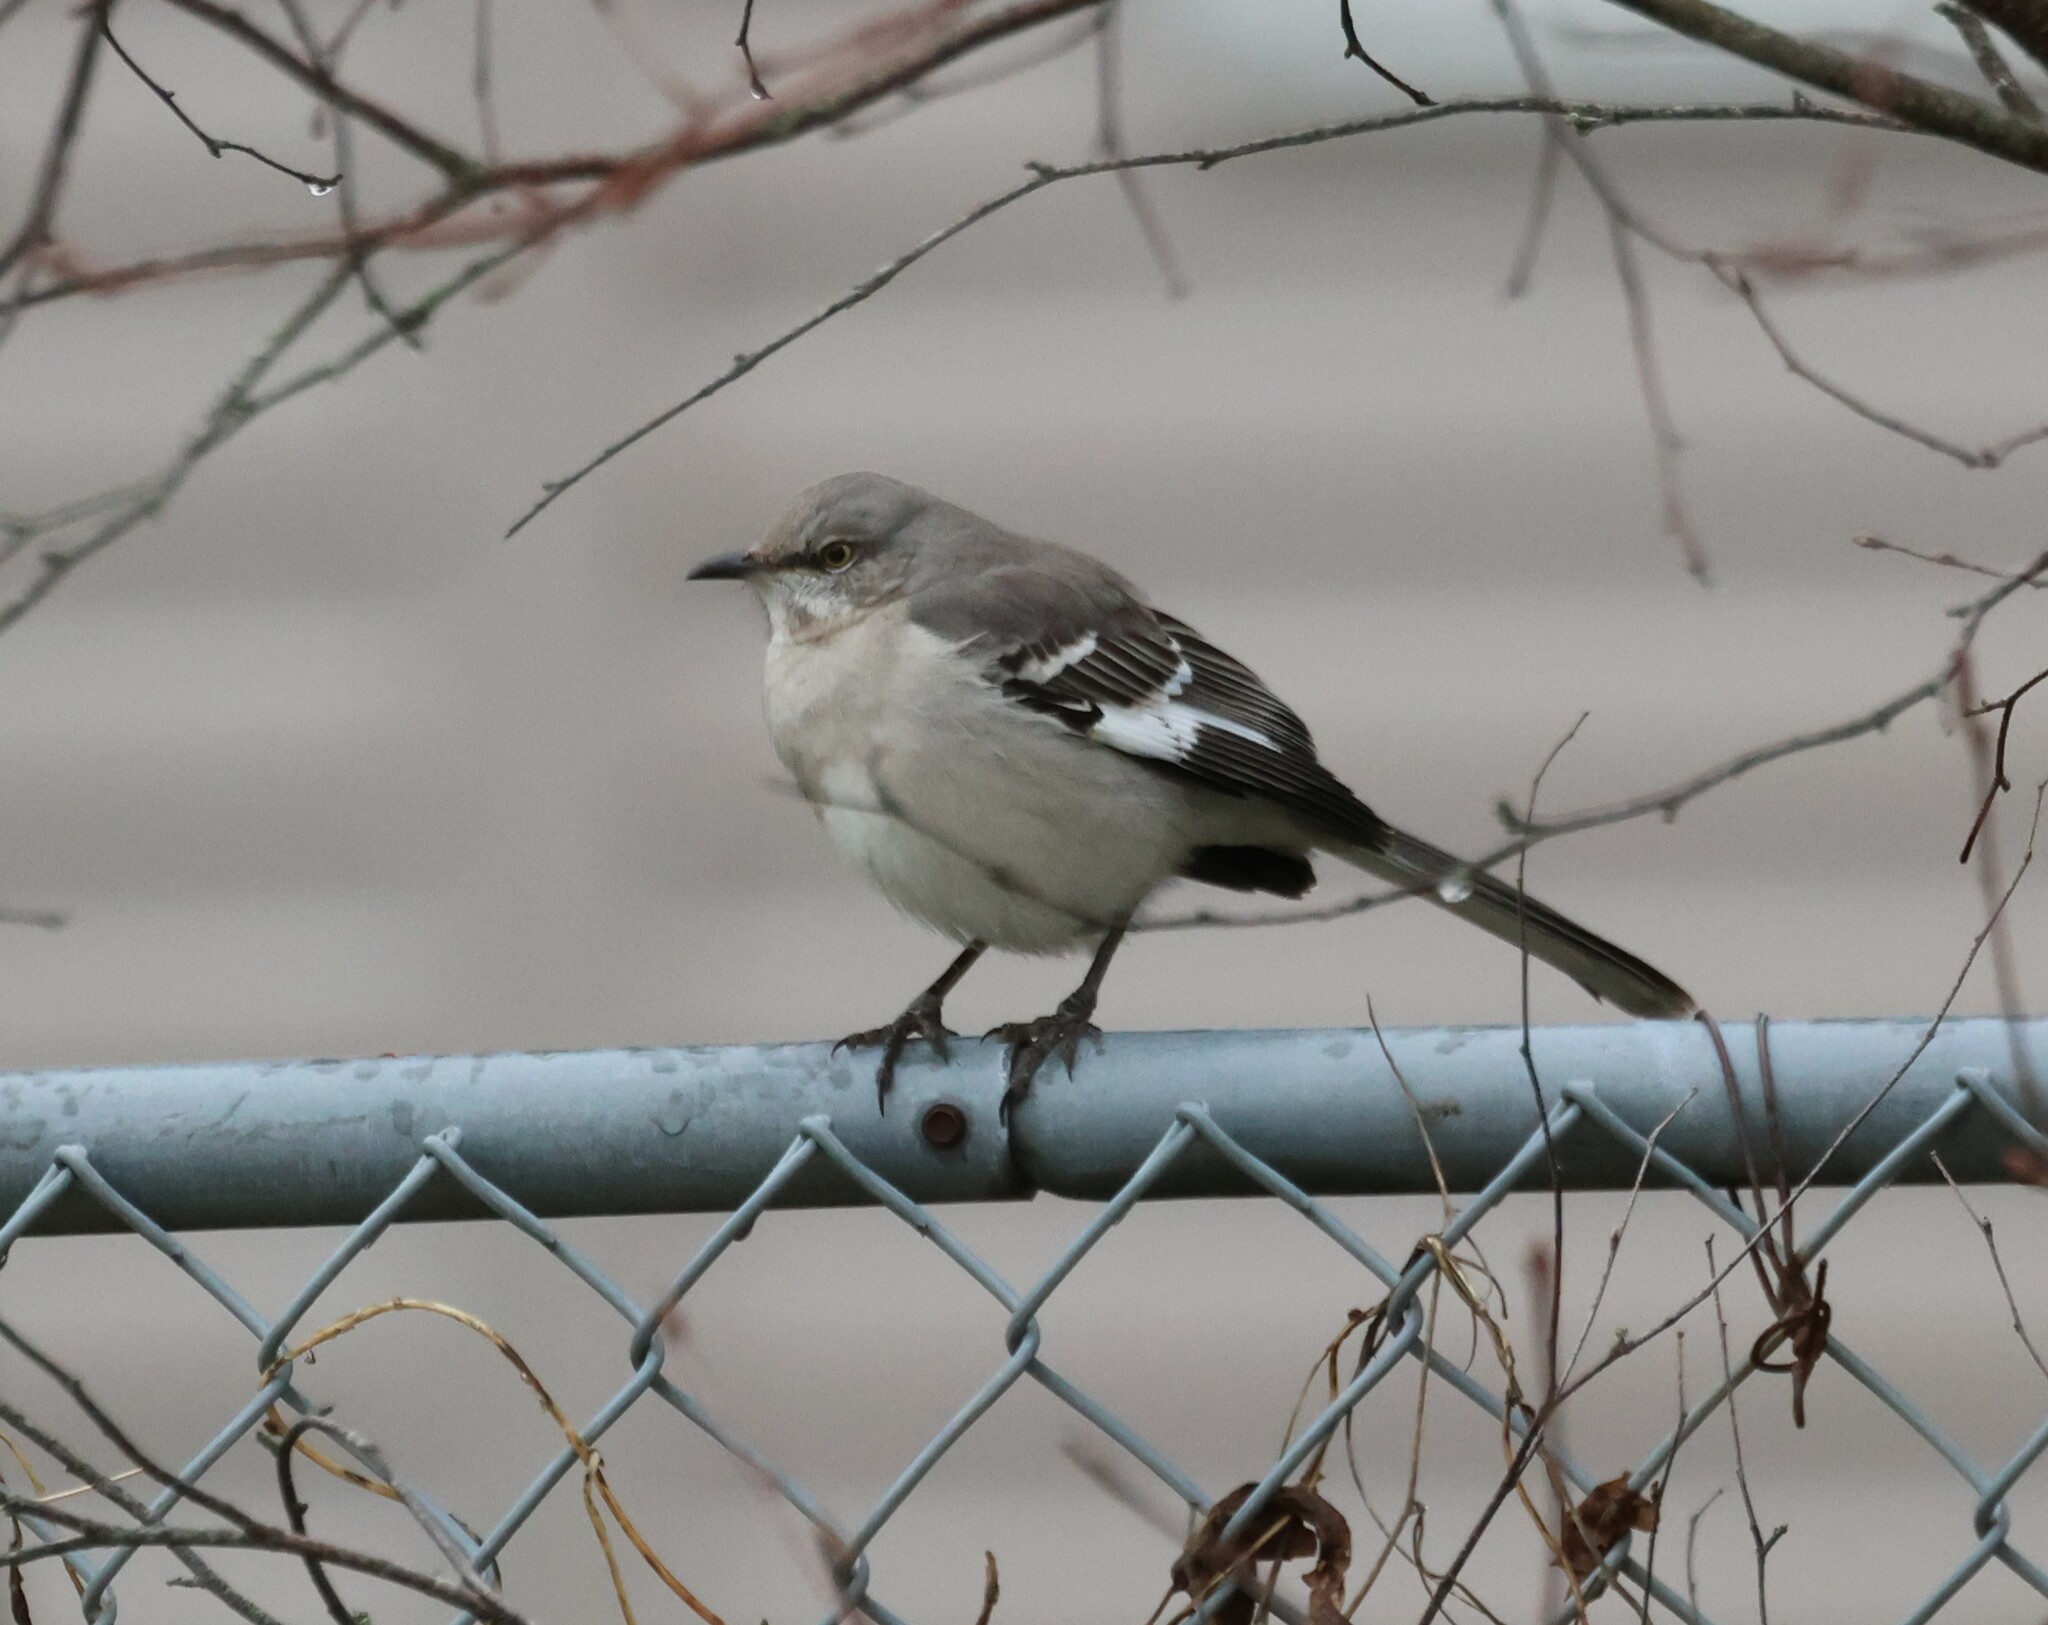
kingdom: Animalia
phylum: Chordata
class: Aves
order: Passeriformes
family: Mimidae
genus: Mimus
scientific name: Mimus polyglottos
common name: Northern mockingbird
